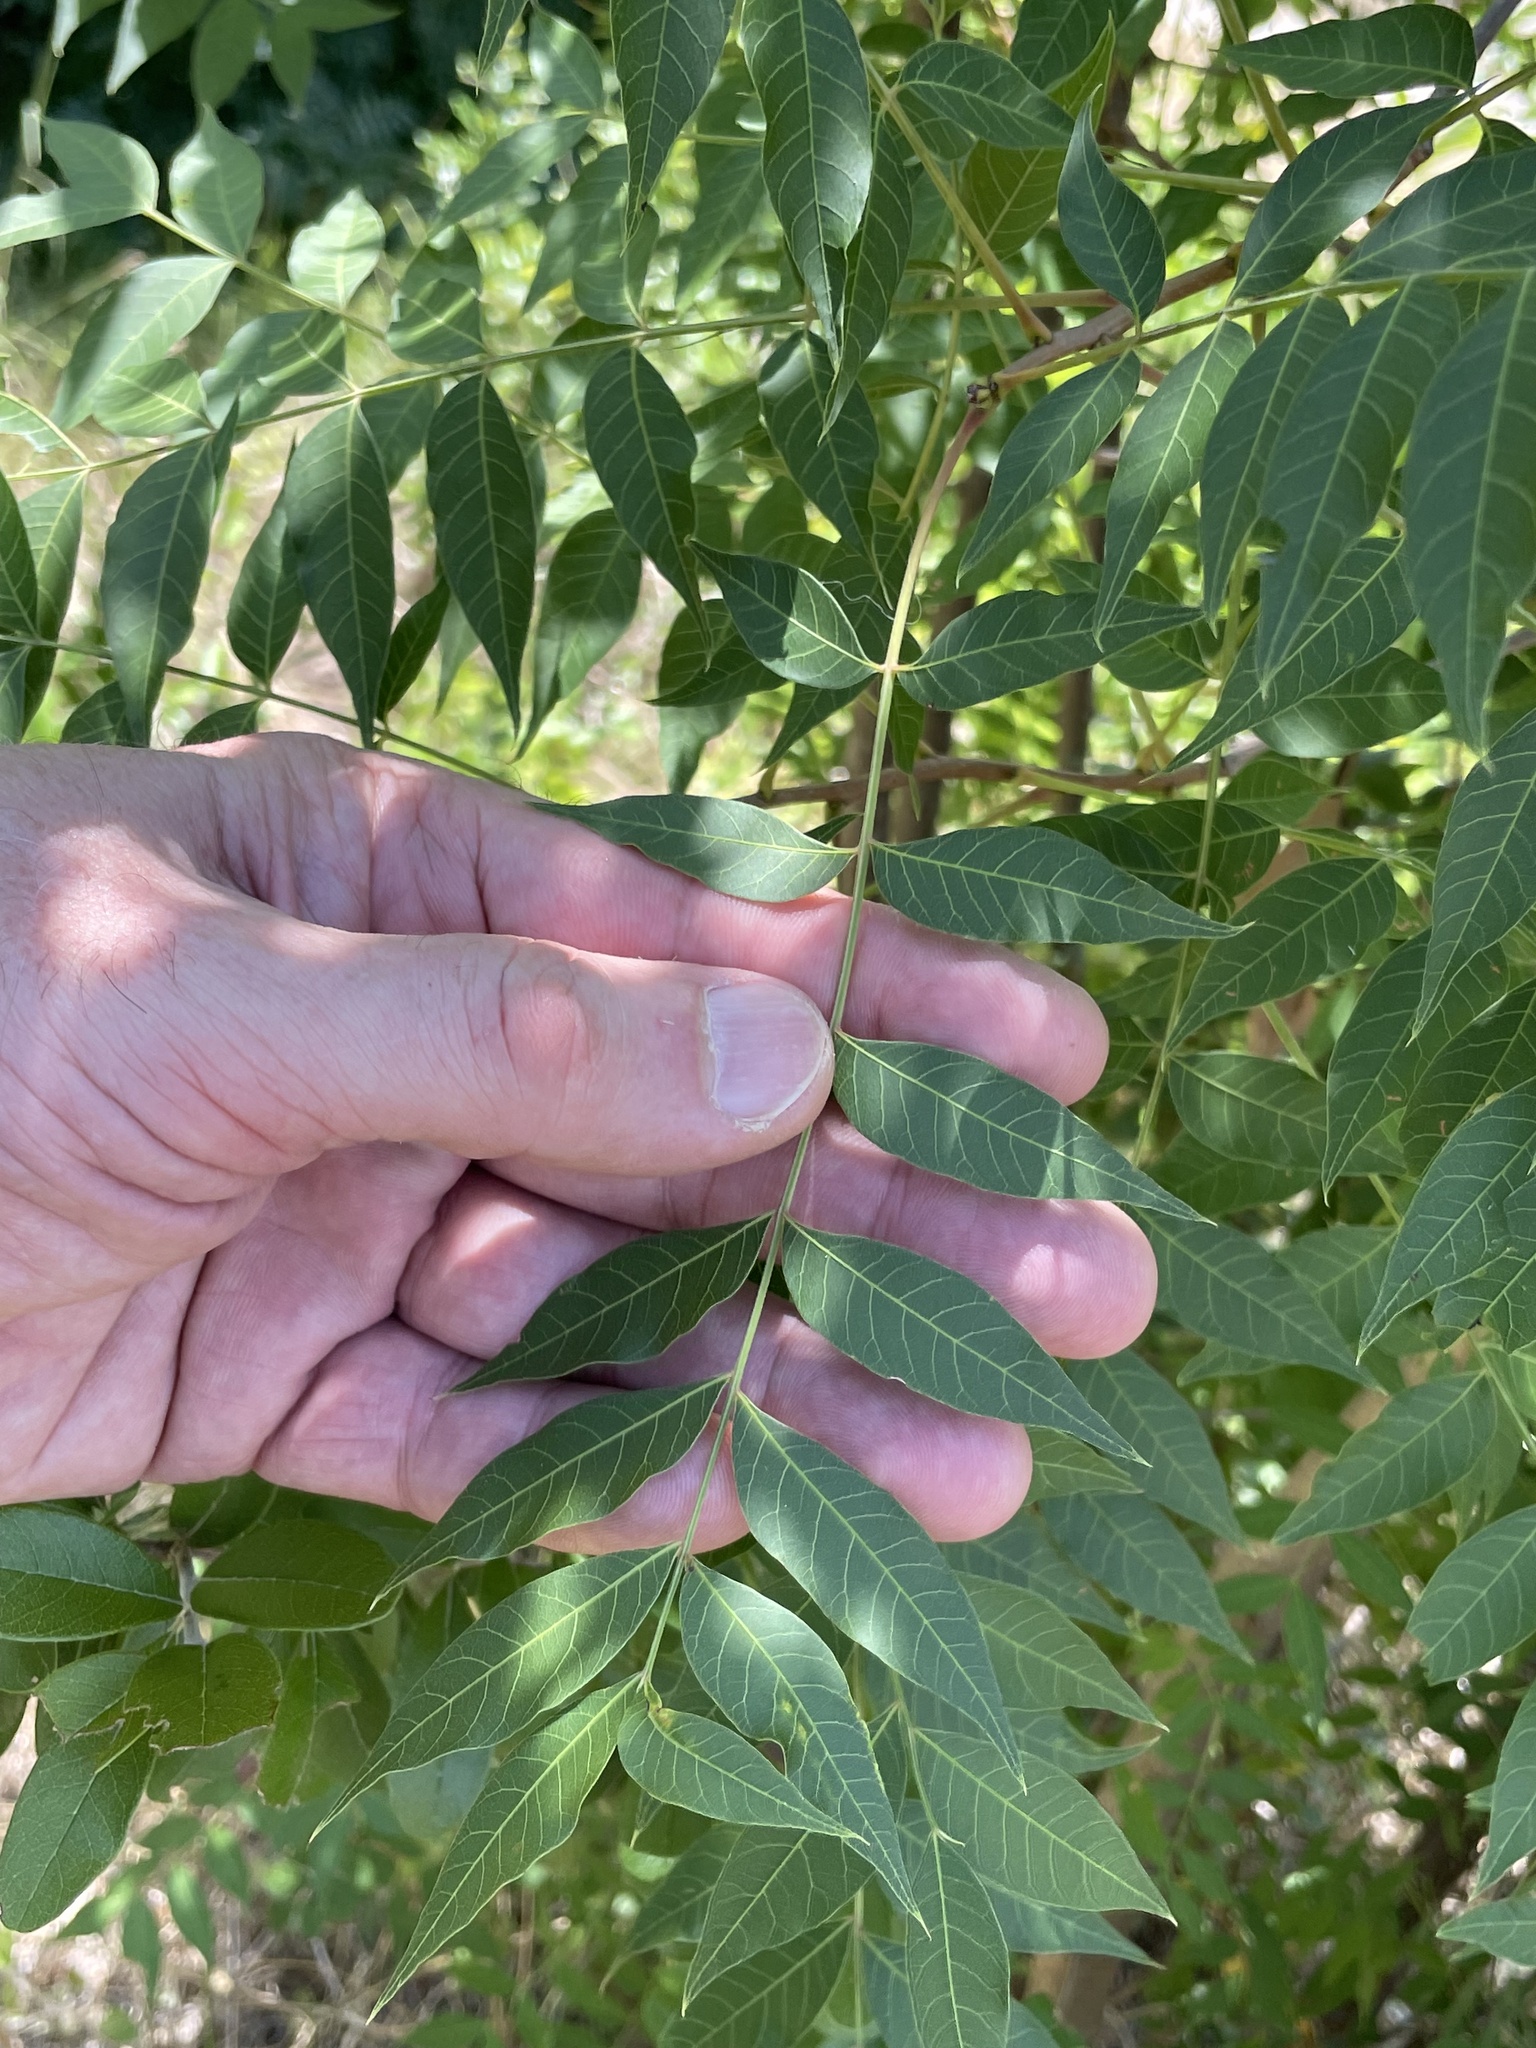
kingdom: Plantae
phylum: Tracheophyta
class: Magnoliopsida
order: Sapindales
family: Anacardiaceae
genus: Pistacia
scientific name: Pistacia chinensis
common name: Chinese pistache
